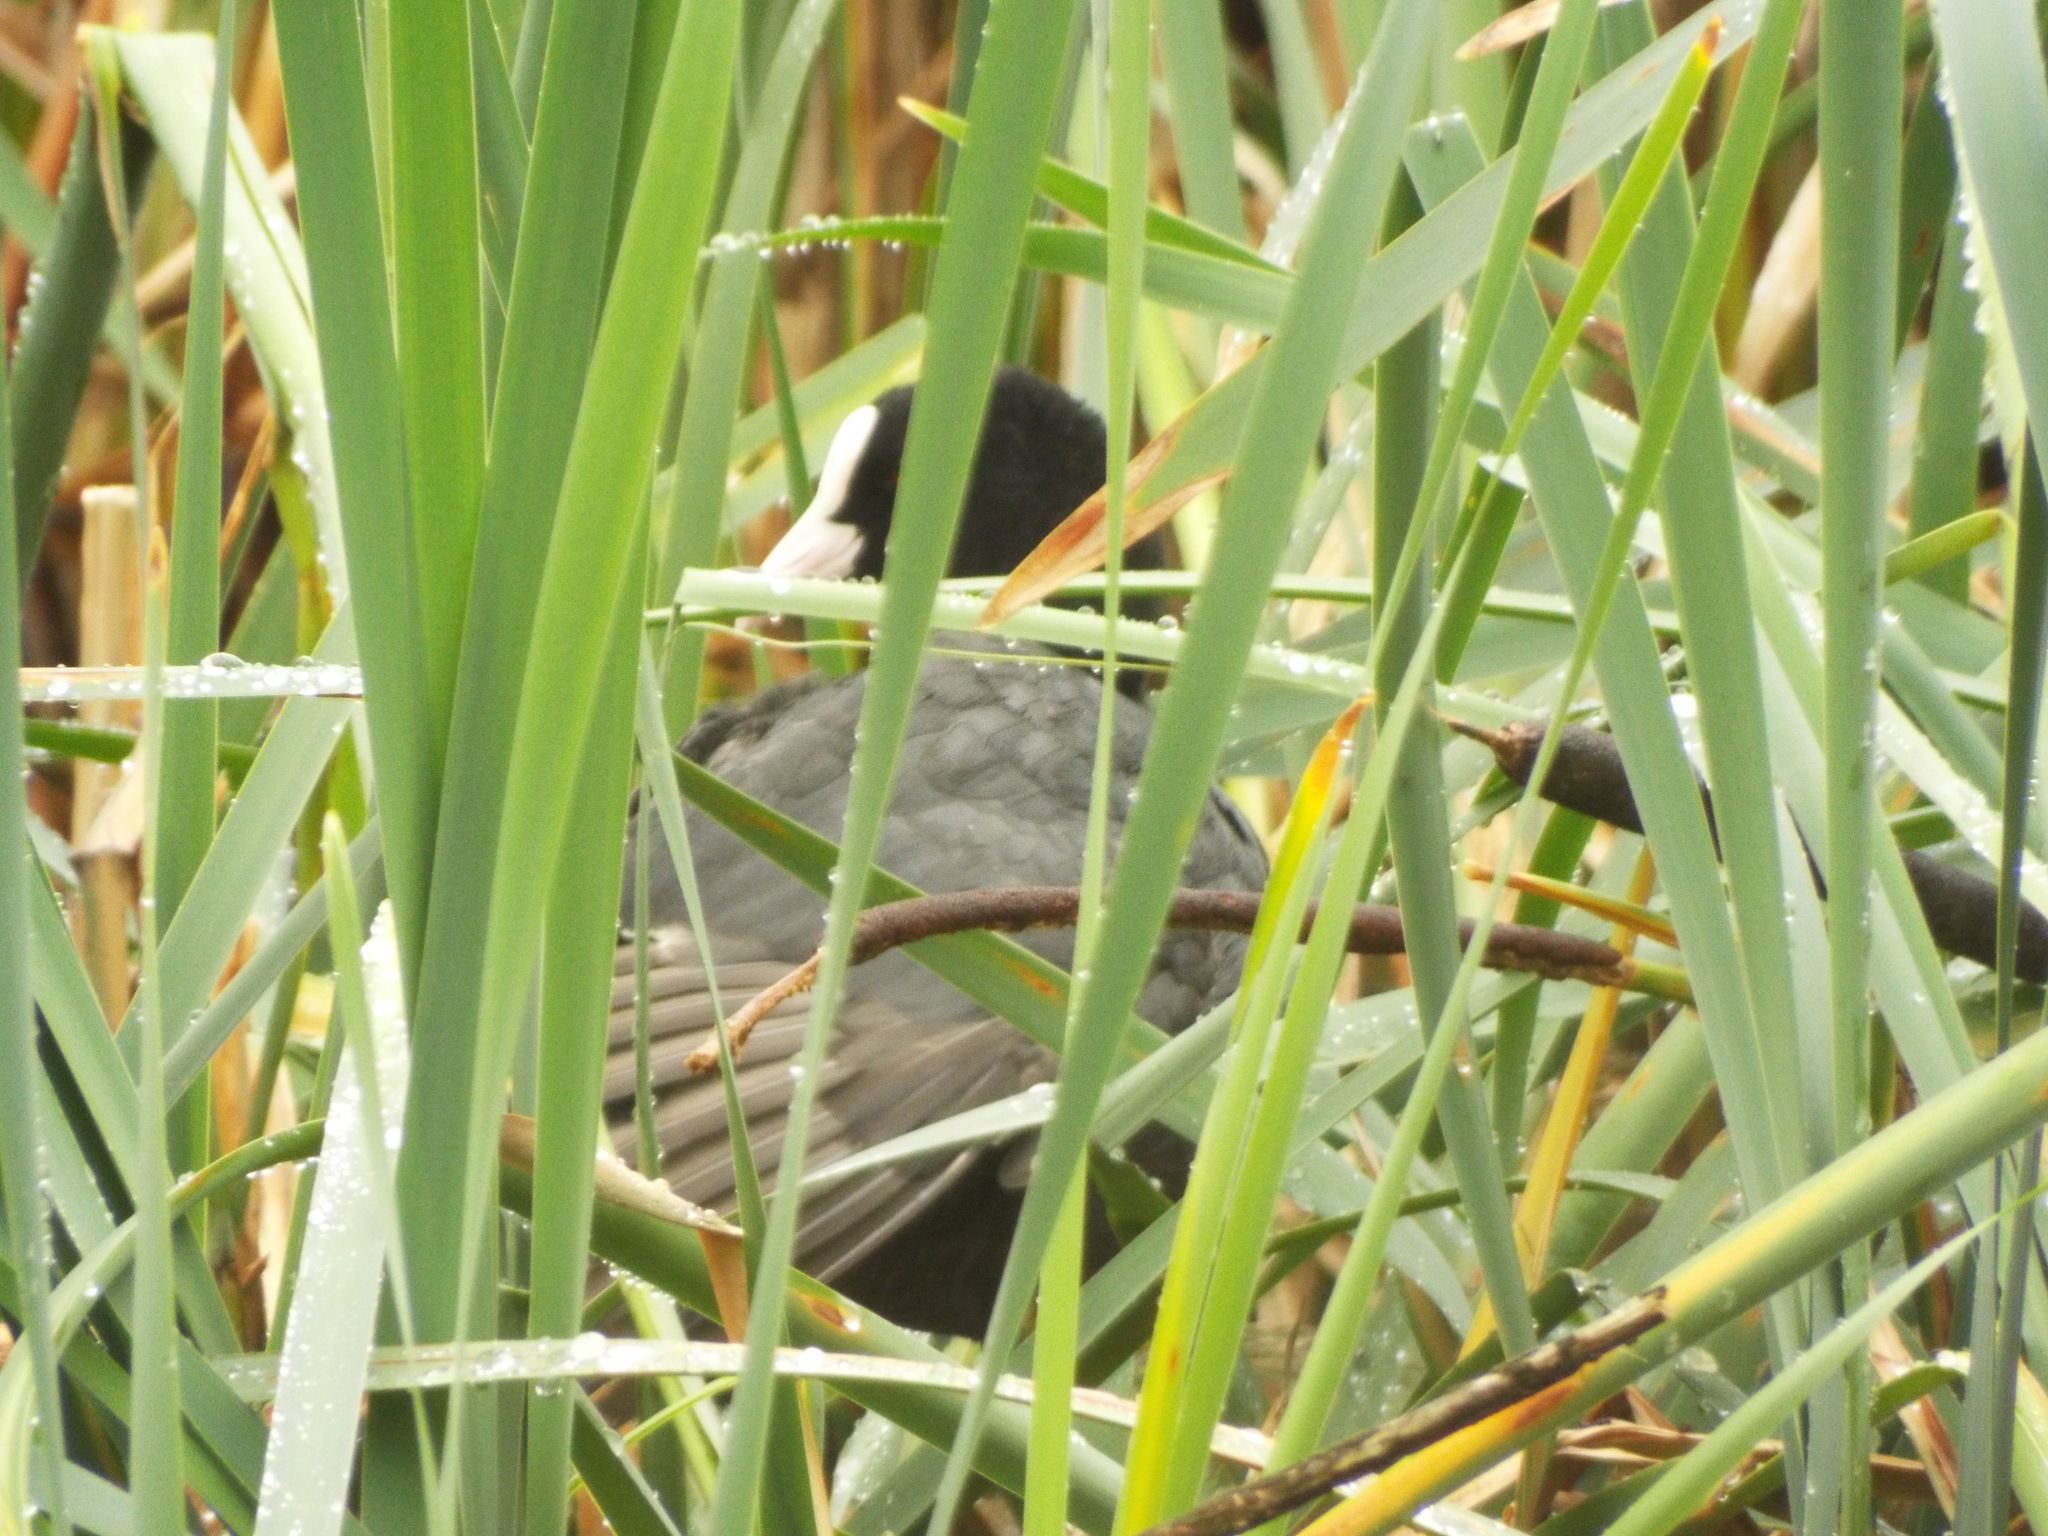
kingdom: Animalia
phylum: Chordata
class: Aves
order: Gruiformes
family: Rallidae
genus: Fulica
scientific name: Fulica atra
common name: Eurasian coot
